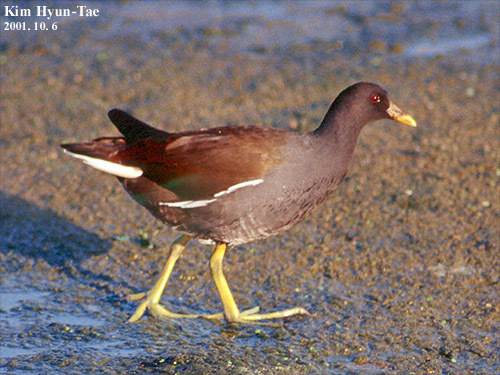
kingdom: Animalia
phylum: Chordata
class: Aves
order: Gruiformes
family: Rallidae
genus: Gallinula
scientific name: Gallinula chloropus
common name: Common moorhen
